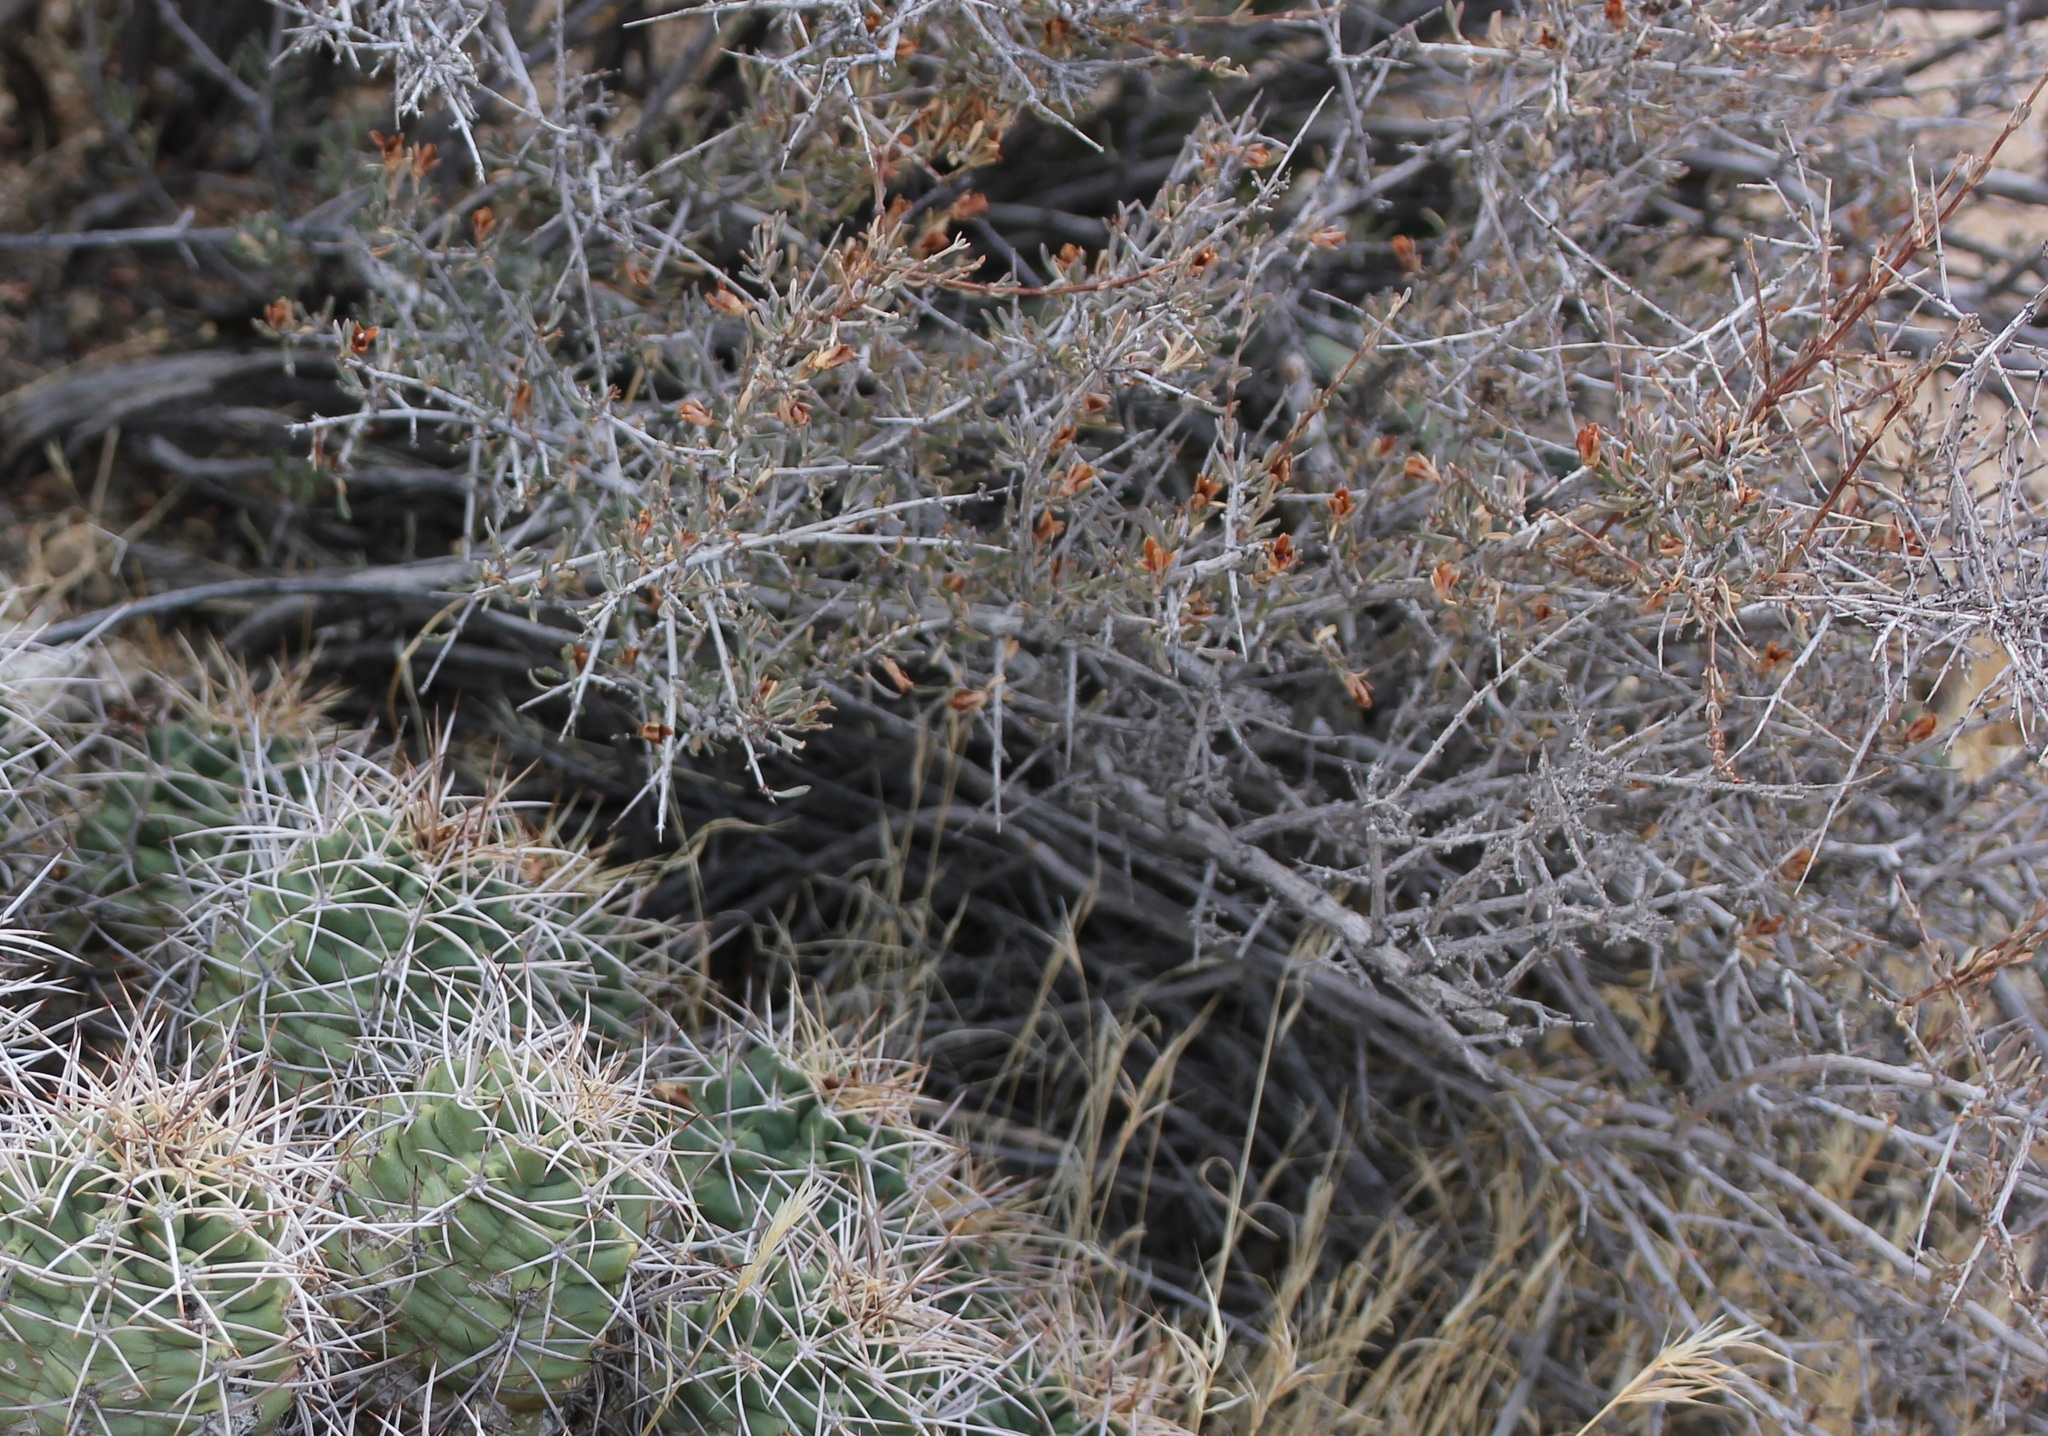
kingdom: Plantae
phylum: Tracheophyta
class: Magnoliopsida
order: Rosales
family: Rosaceae
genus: Coleogyne
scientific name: Coleogyne ramosissima
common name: Blackbrush
